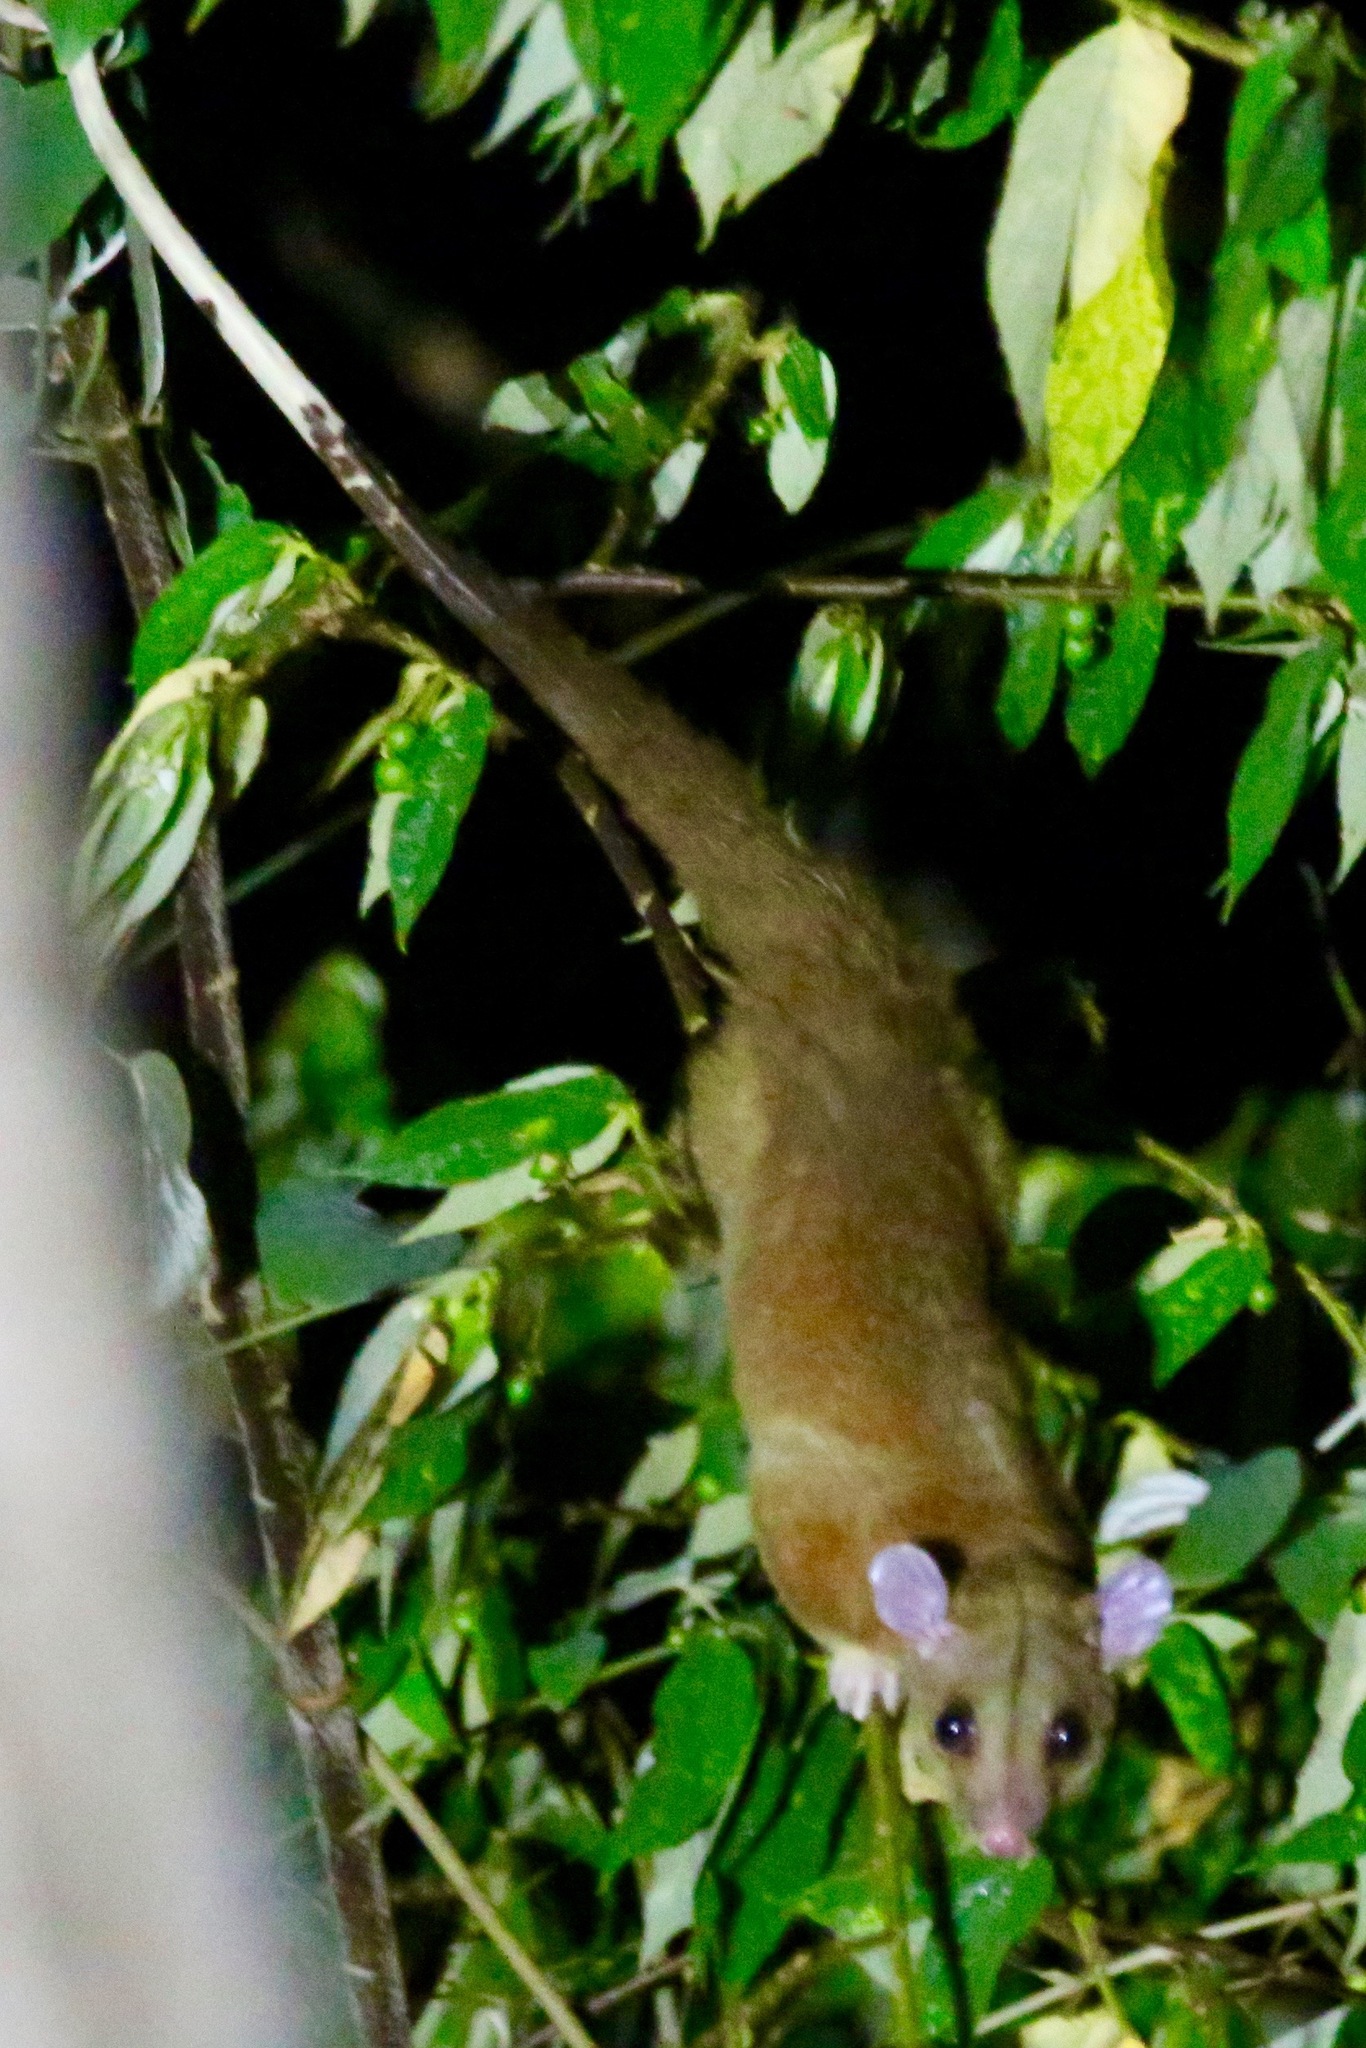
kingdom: Animalia
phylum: Chordata
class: Mammalia
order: Didelphimorphia
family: Didelphidae
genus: Caluromys
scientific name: Caluromys derbianus
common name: Derby's woolly opossum
